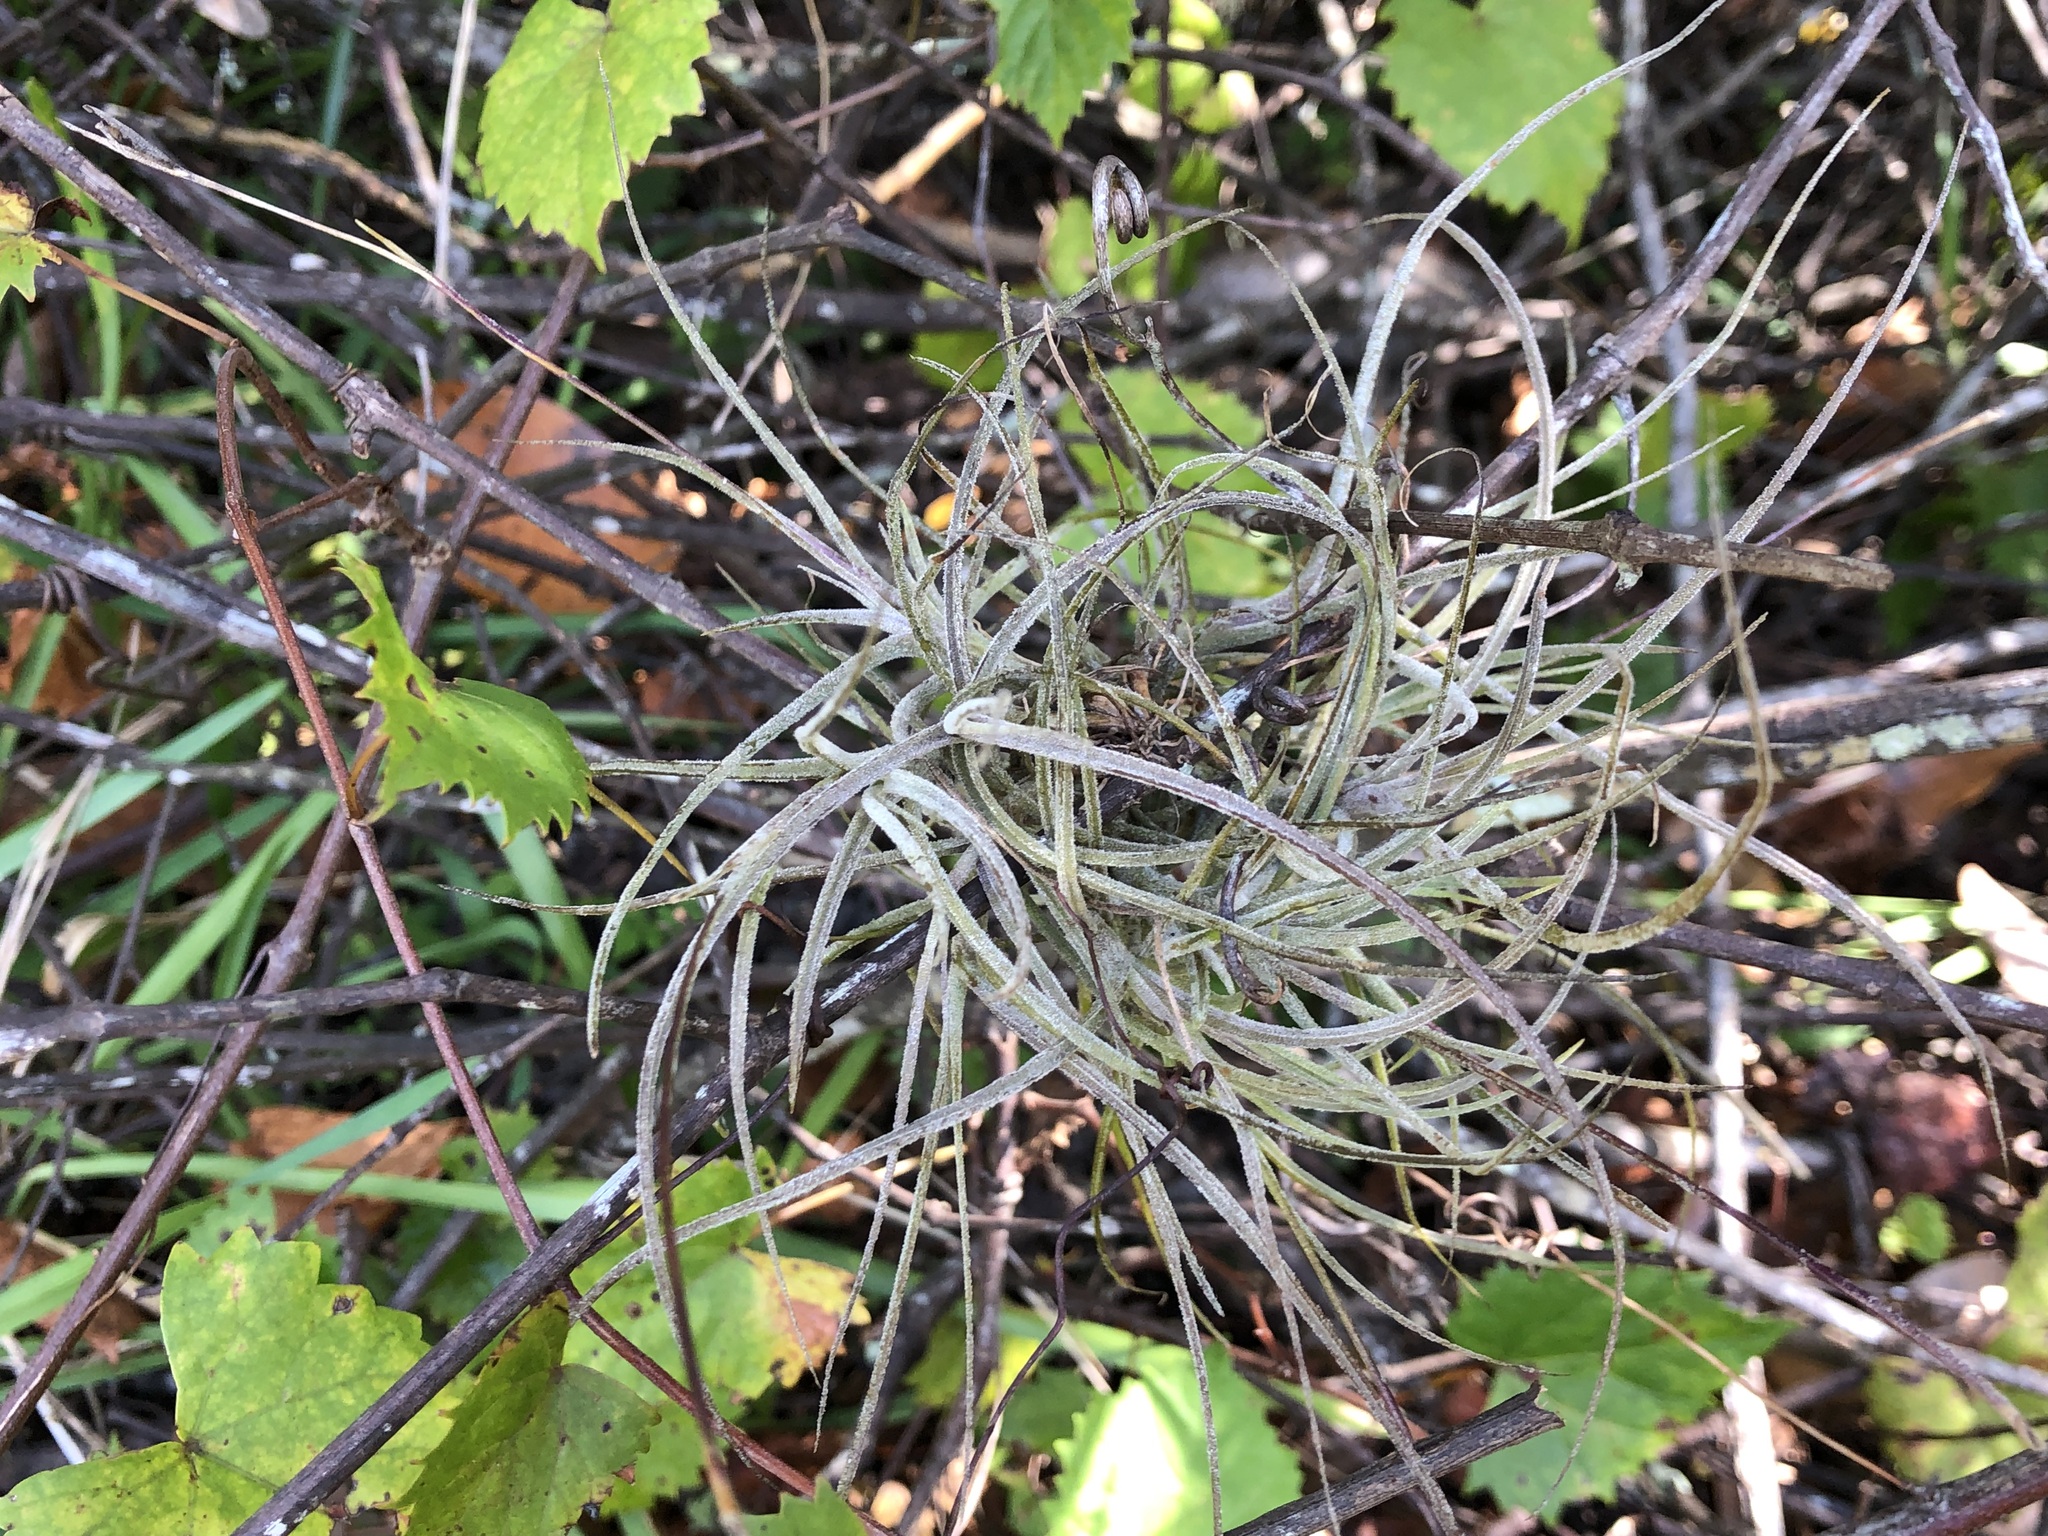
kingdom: Plantae
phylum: Tracheophyta
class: Liliopsida
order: Poales
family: Bromeliaceae
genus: Tillandsia
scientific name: Tillandsia recurvata
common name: Small ballmoss
